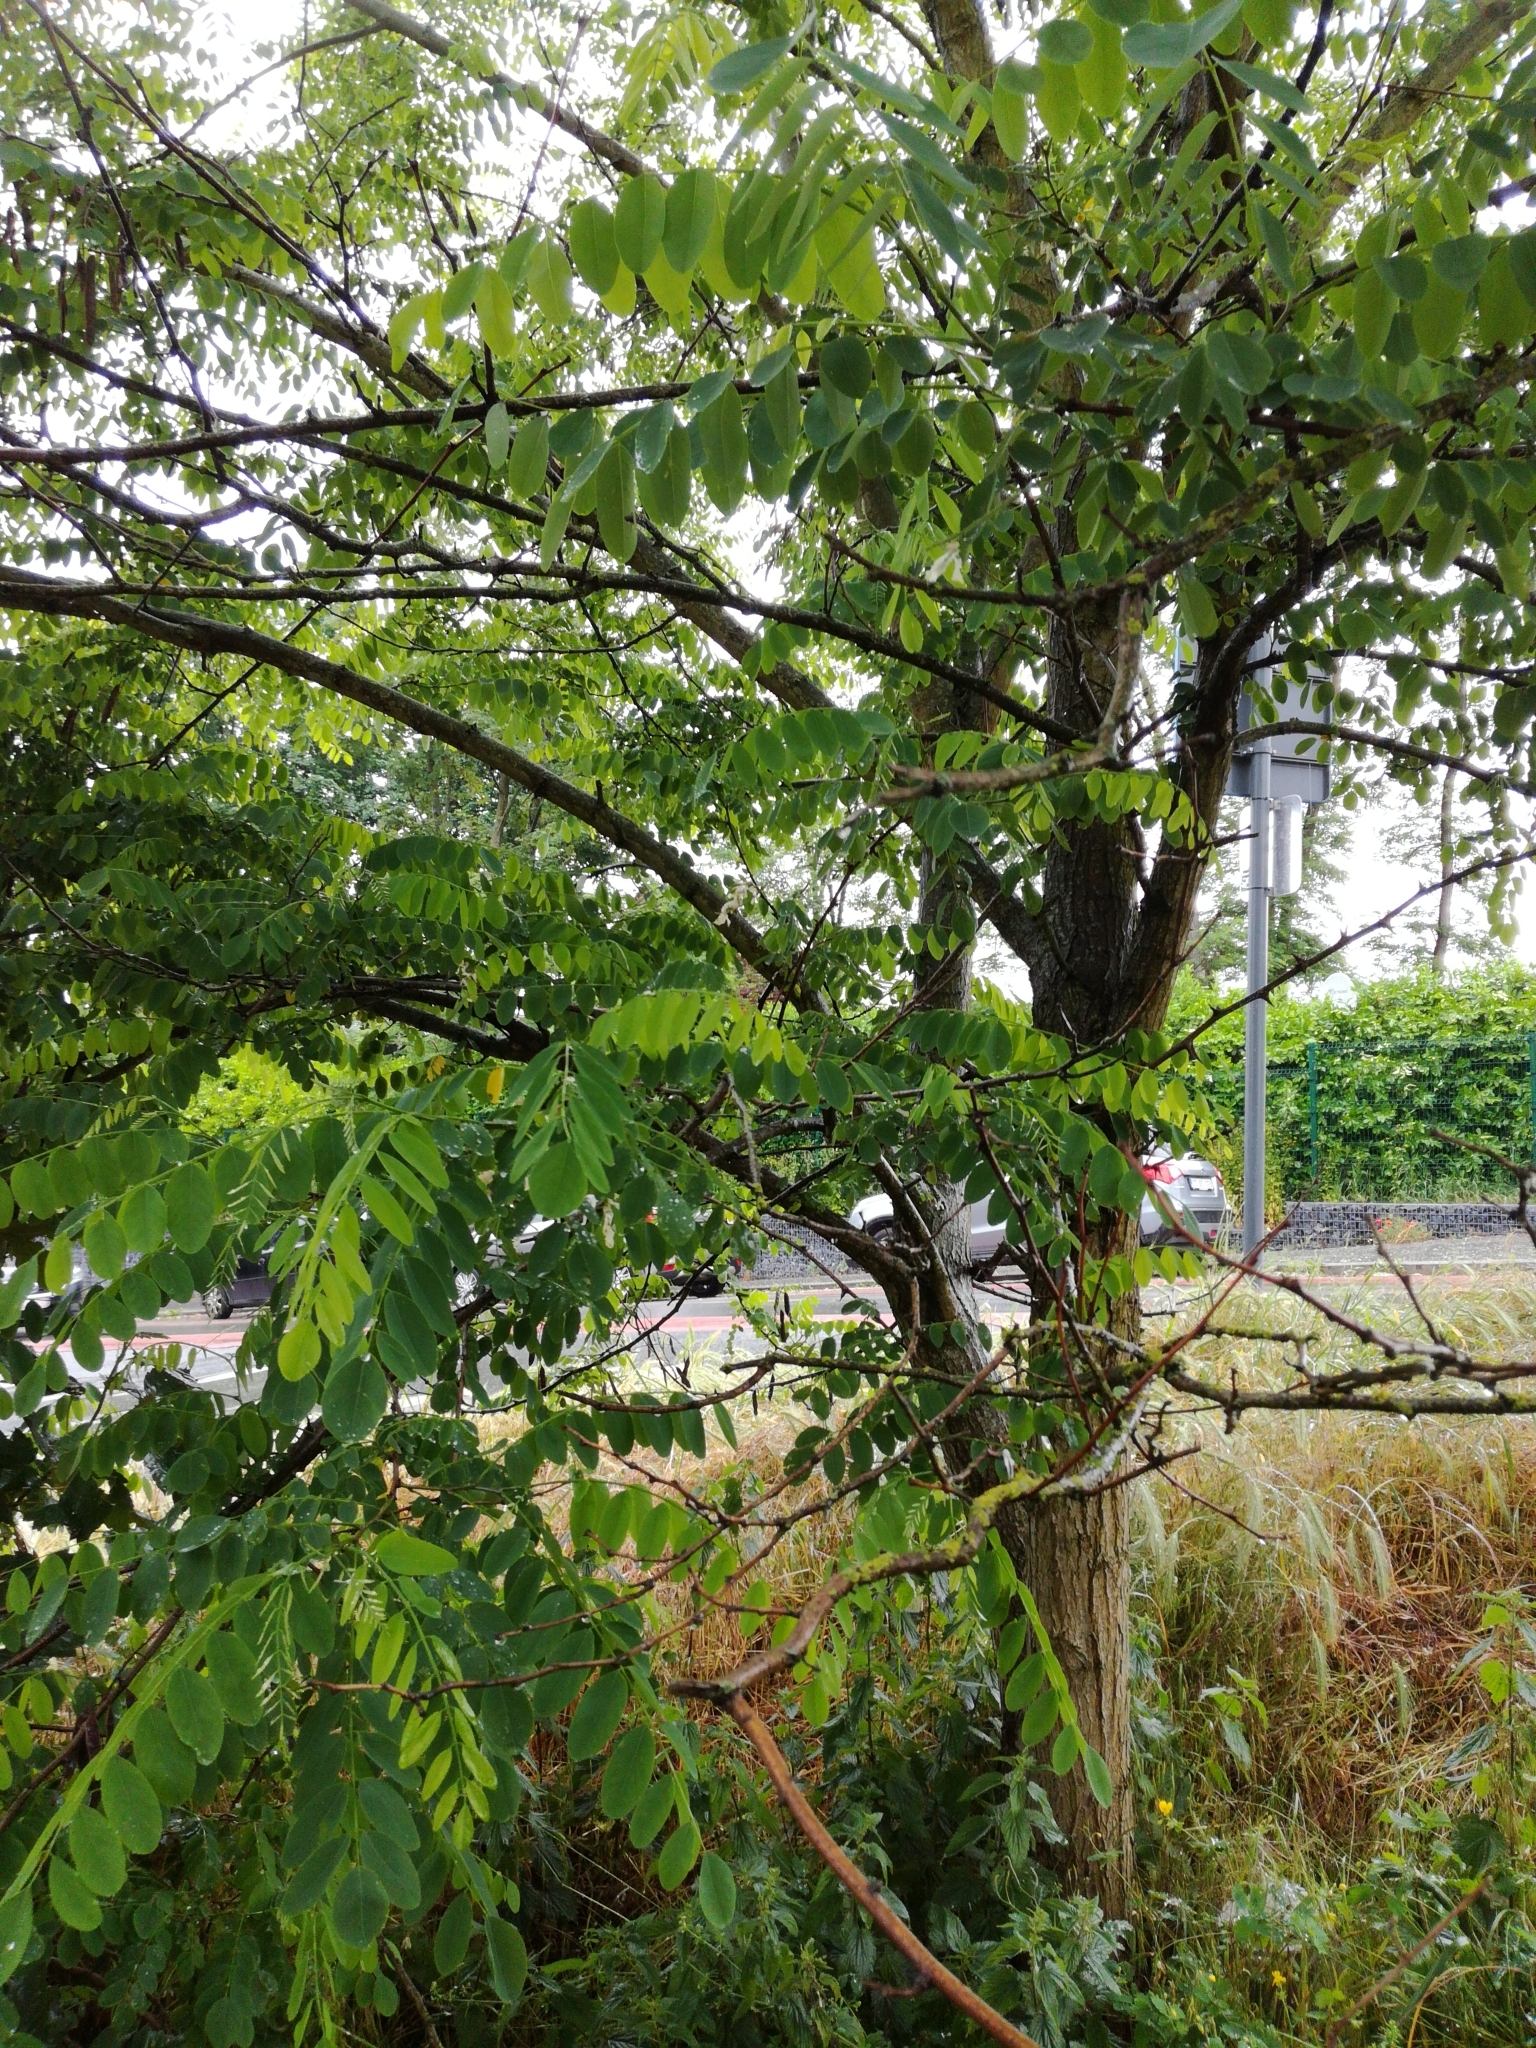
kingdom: Plantae
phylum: Tracheophyta
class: Magnoliopsida
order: Fabales
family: Fabaceae
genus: Robinia
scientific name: Robinia pseudoacacia
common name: Black locust
